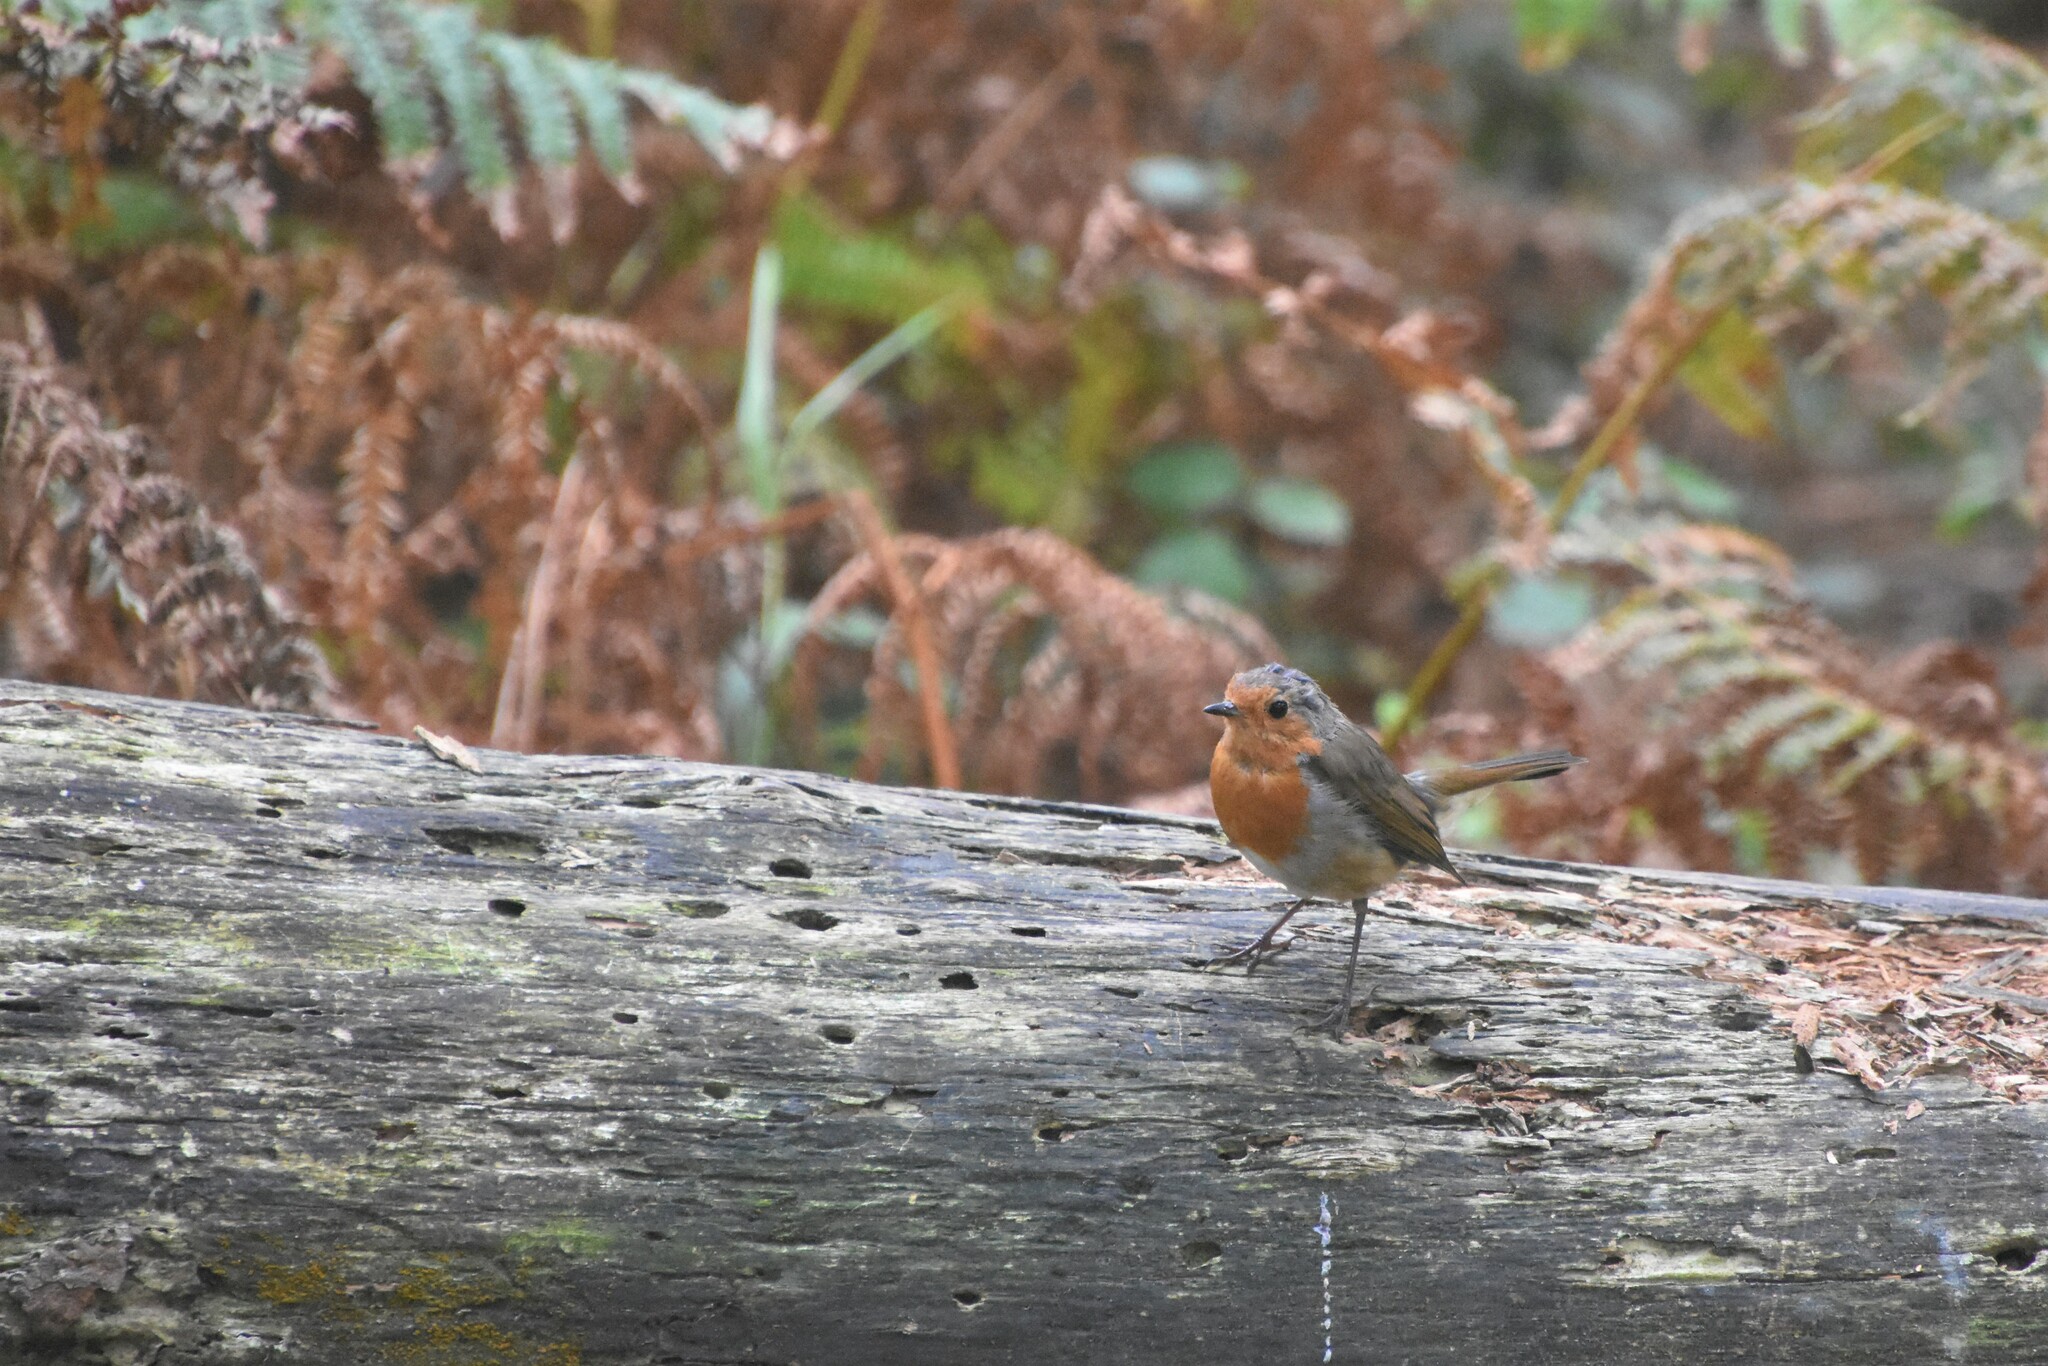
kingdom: Animalia
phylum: Chordata
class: Aves
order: Passeriformes
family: Muscicapidae
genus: Erithacus
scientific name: Erithacus rubecula
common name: European robin
